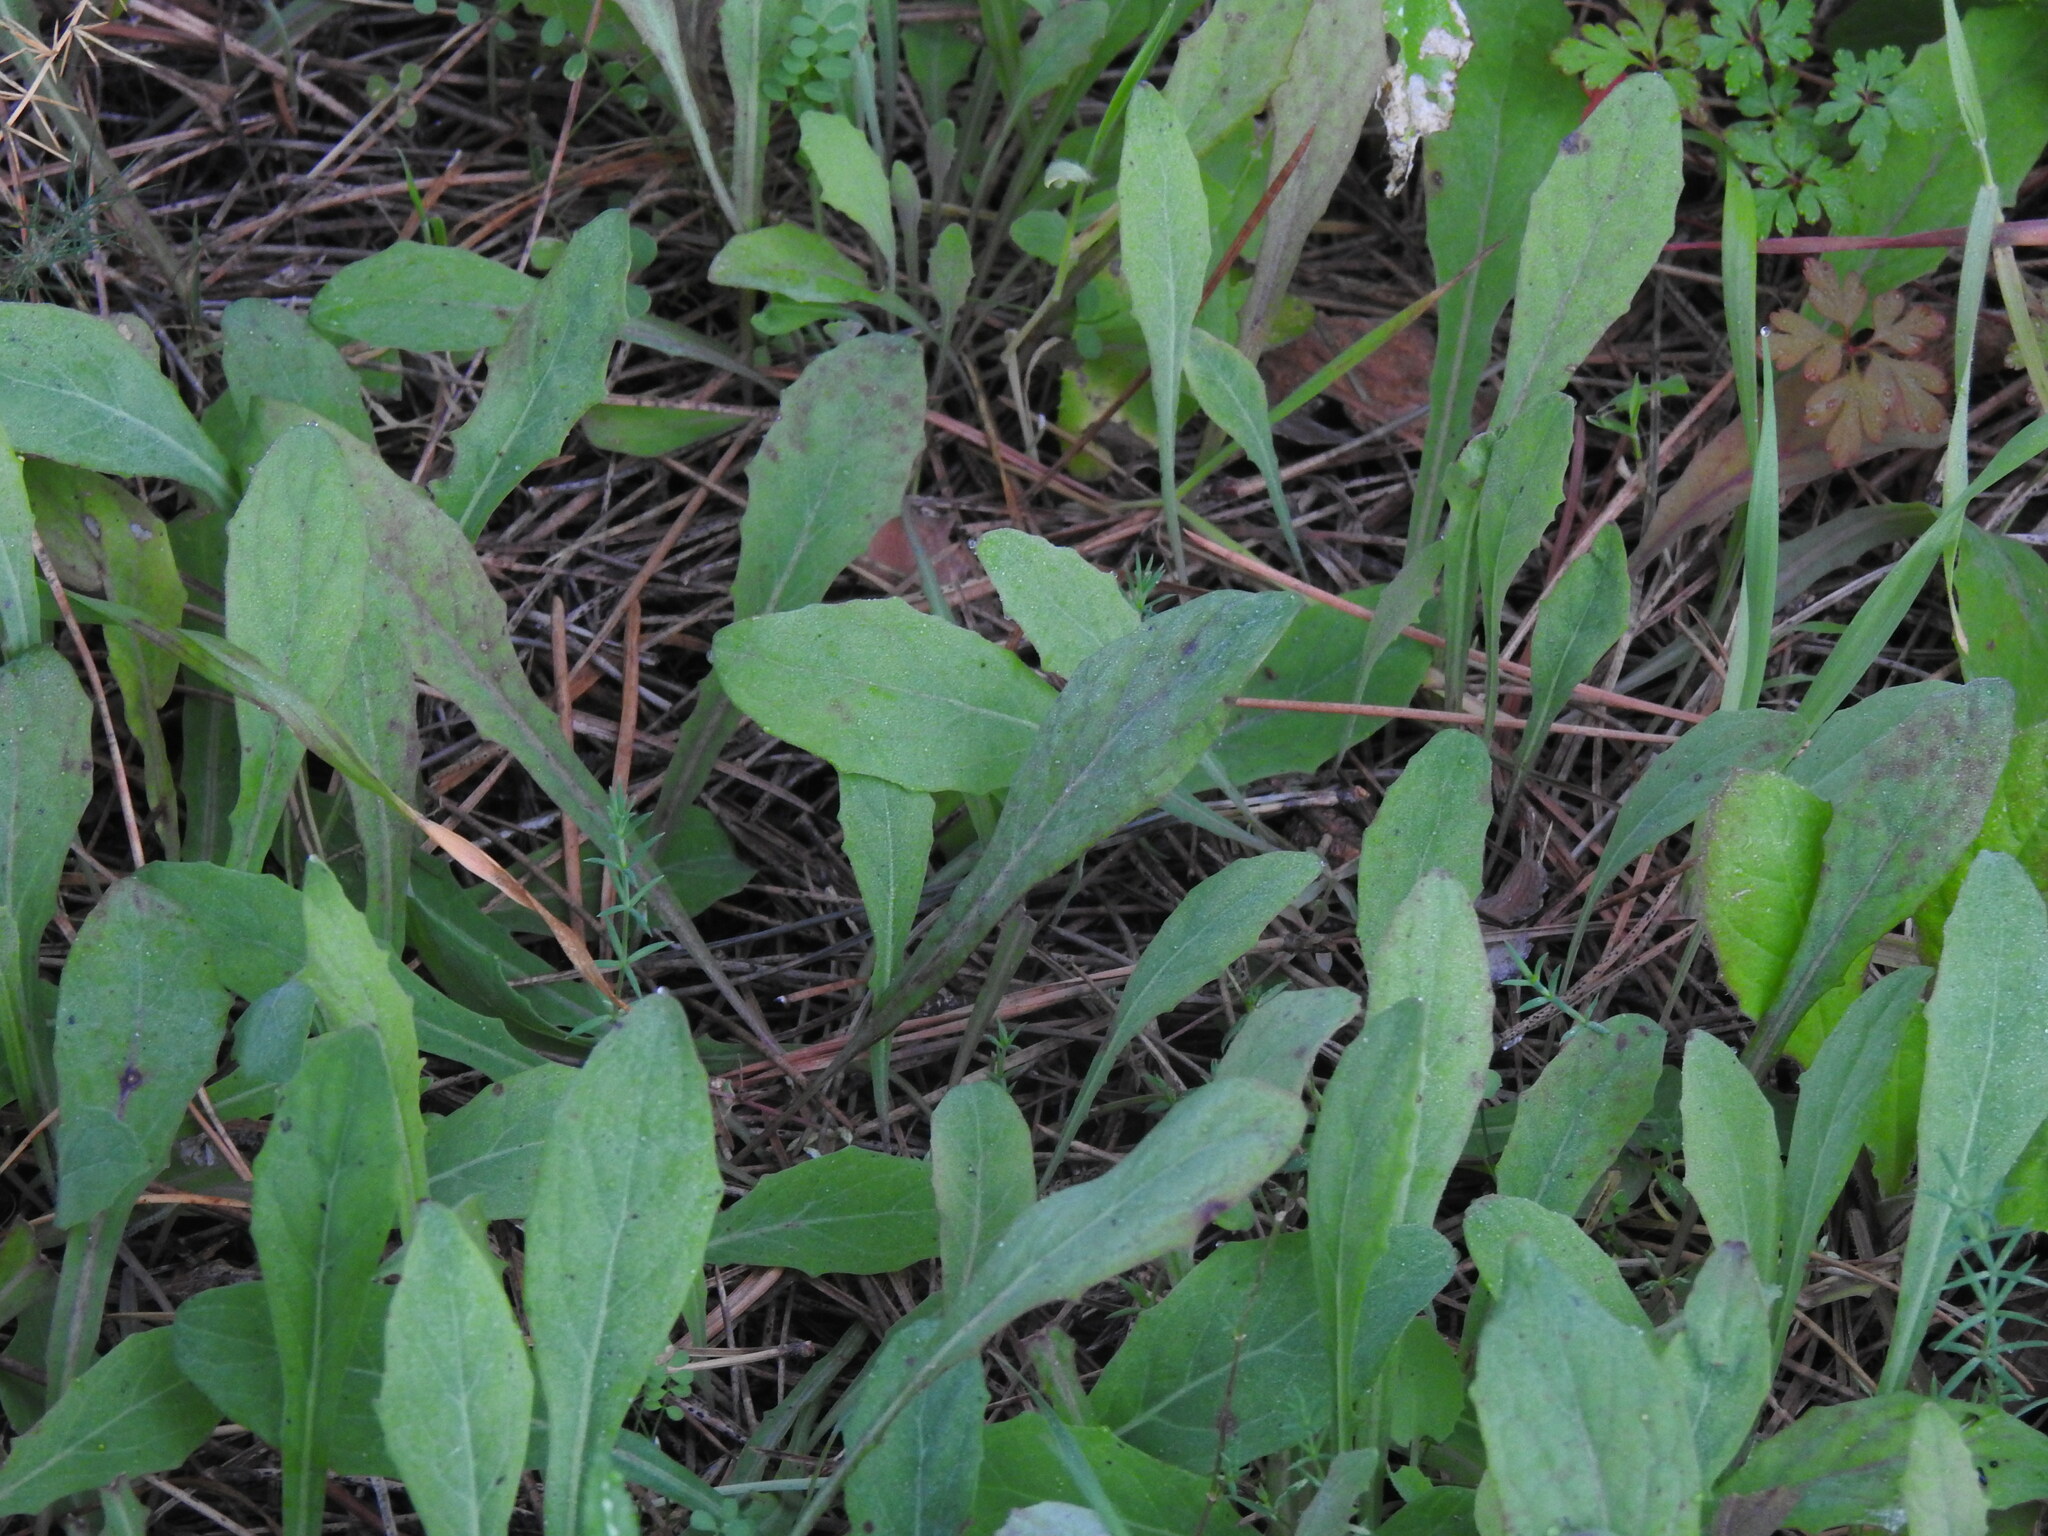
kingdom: Plantae
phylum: Tracheophyta
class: Magnoliopsida
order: Asterales
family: Asteraceae
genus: Aetheorhiza
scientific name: Aetheorhiza bulbosa
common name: Tuberous hawk's-beard
